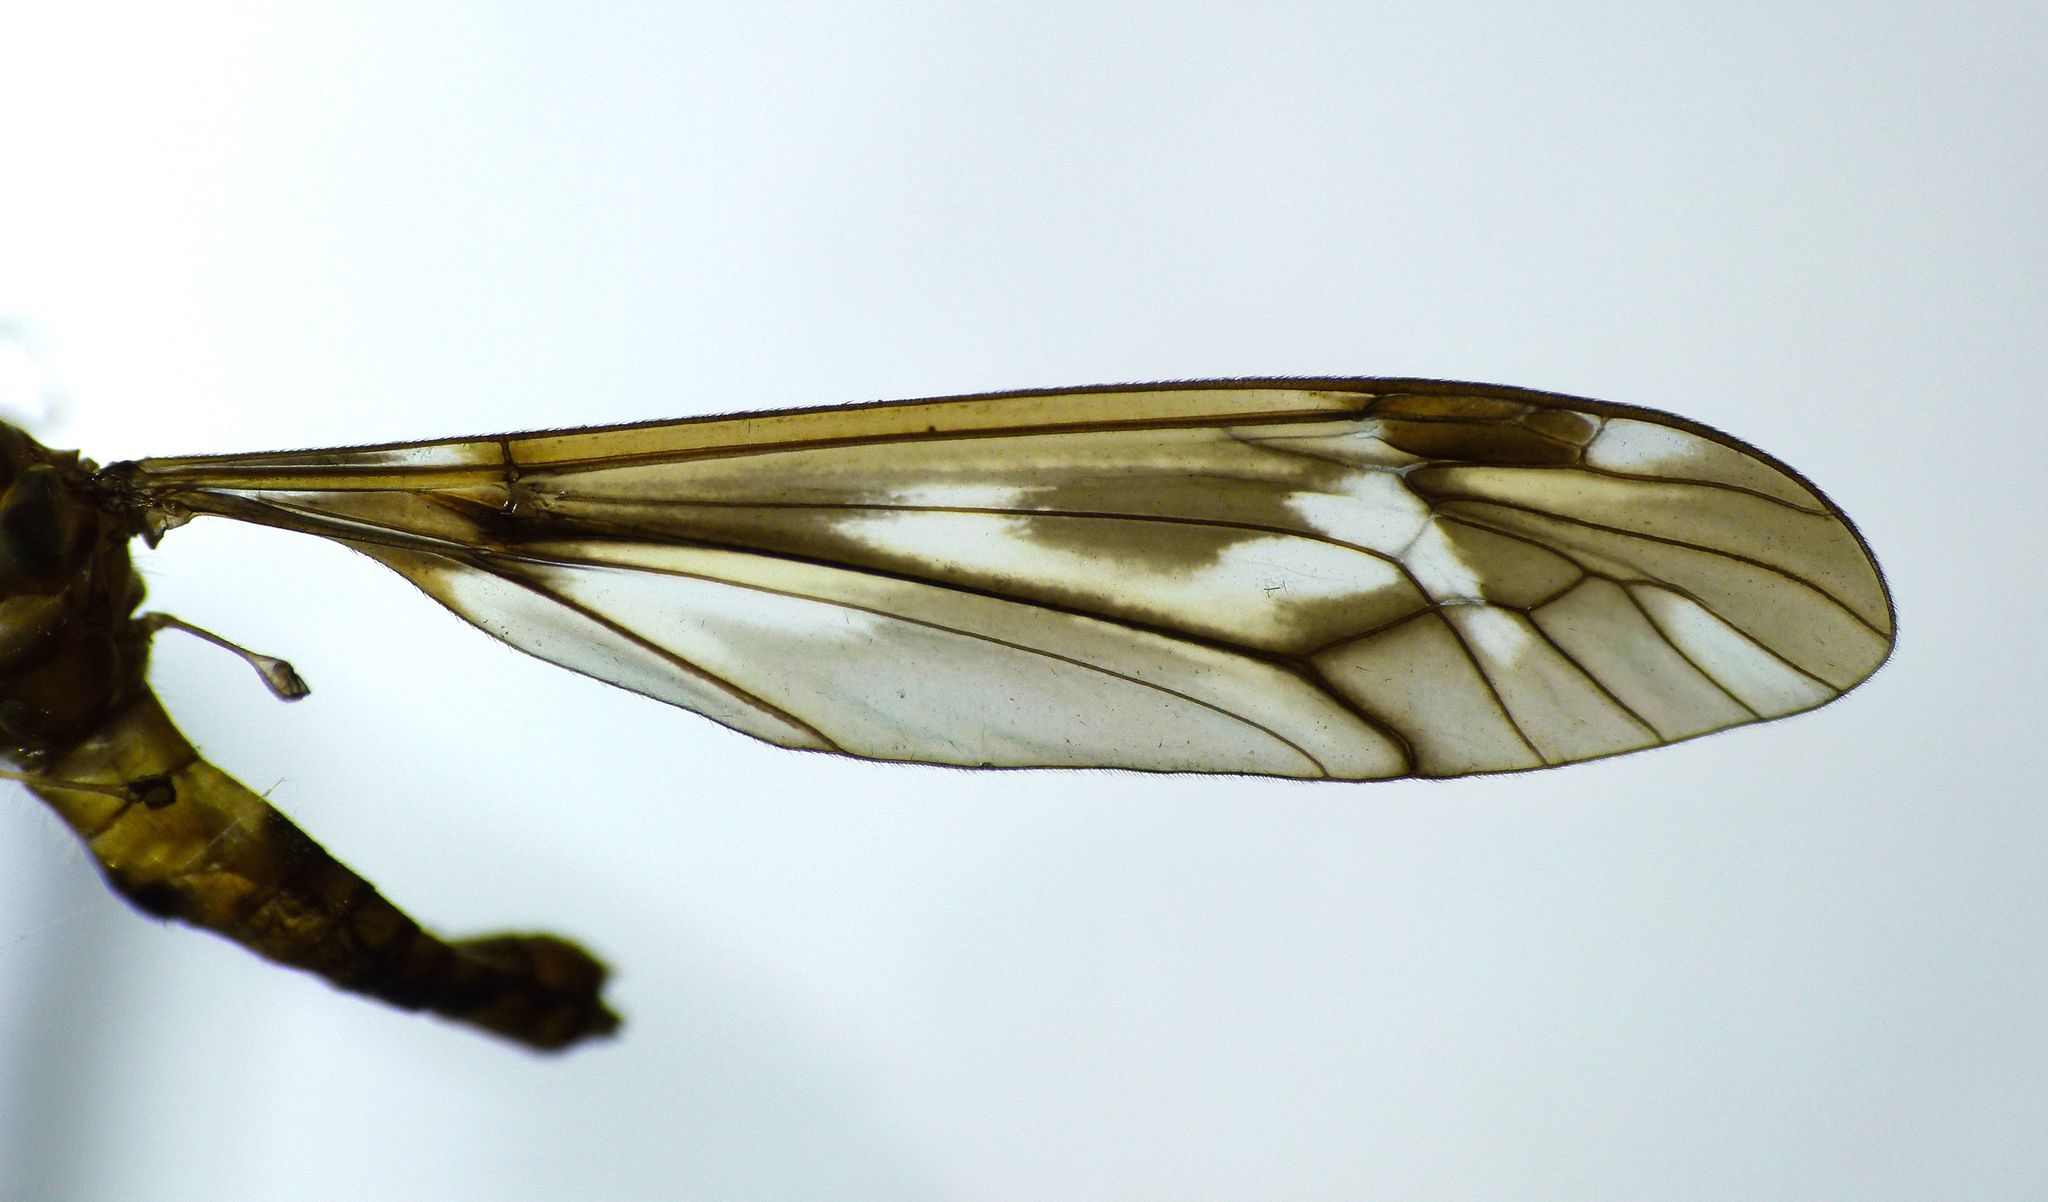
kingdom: Animalia
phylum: Arthropoda
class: Insecta
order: Diptera
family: Tipulidae
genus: Leptotarsus
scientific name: Leptotarsus huttoni
